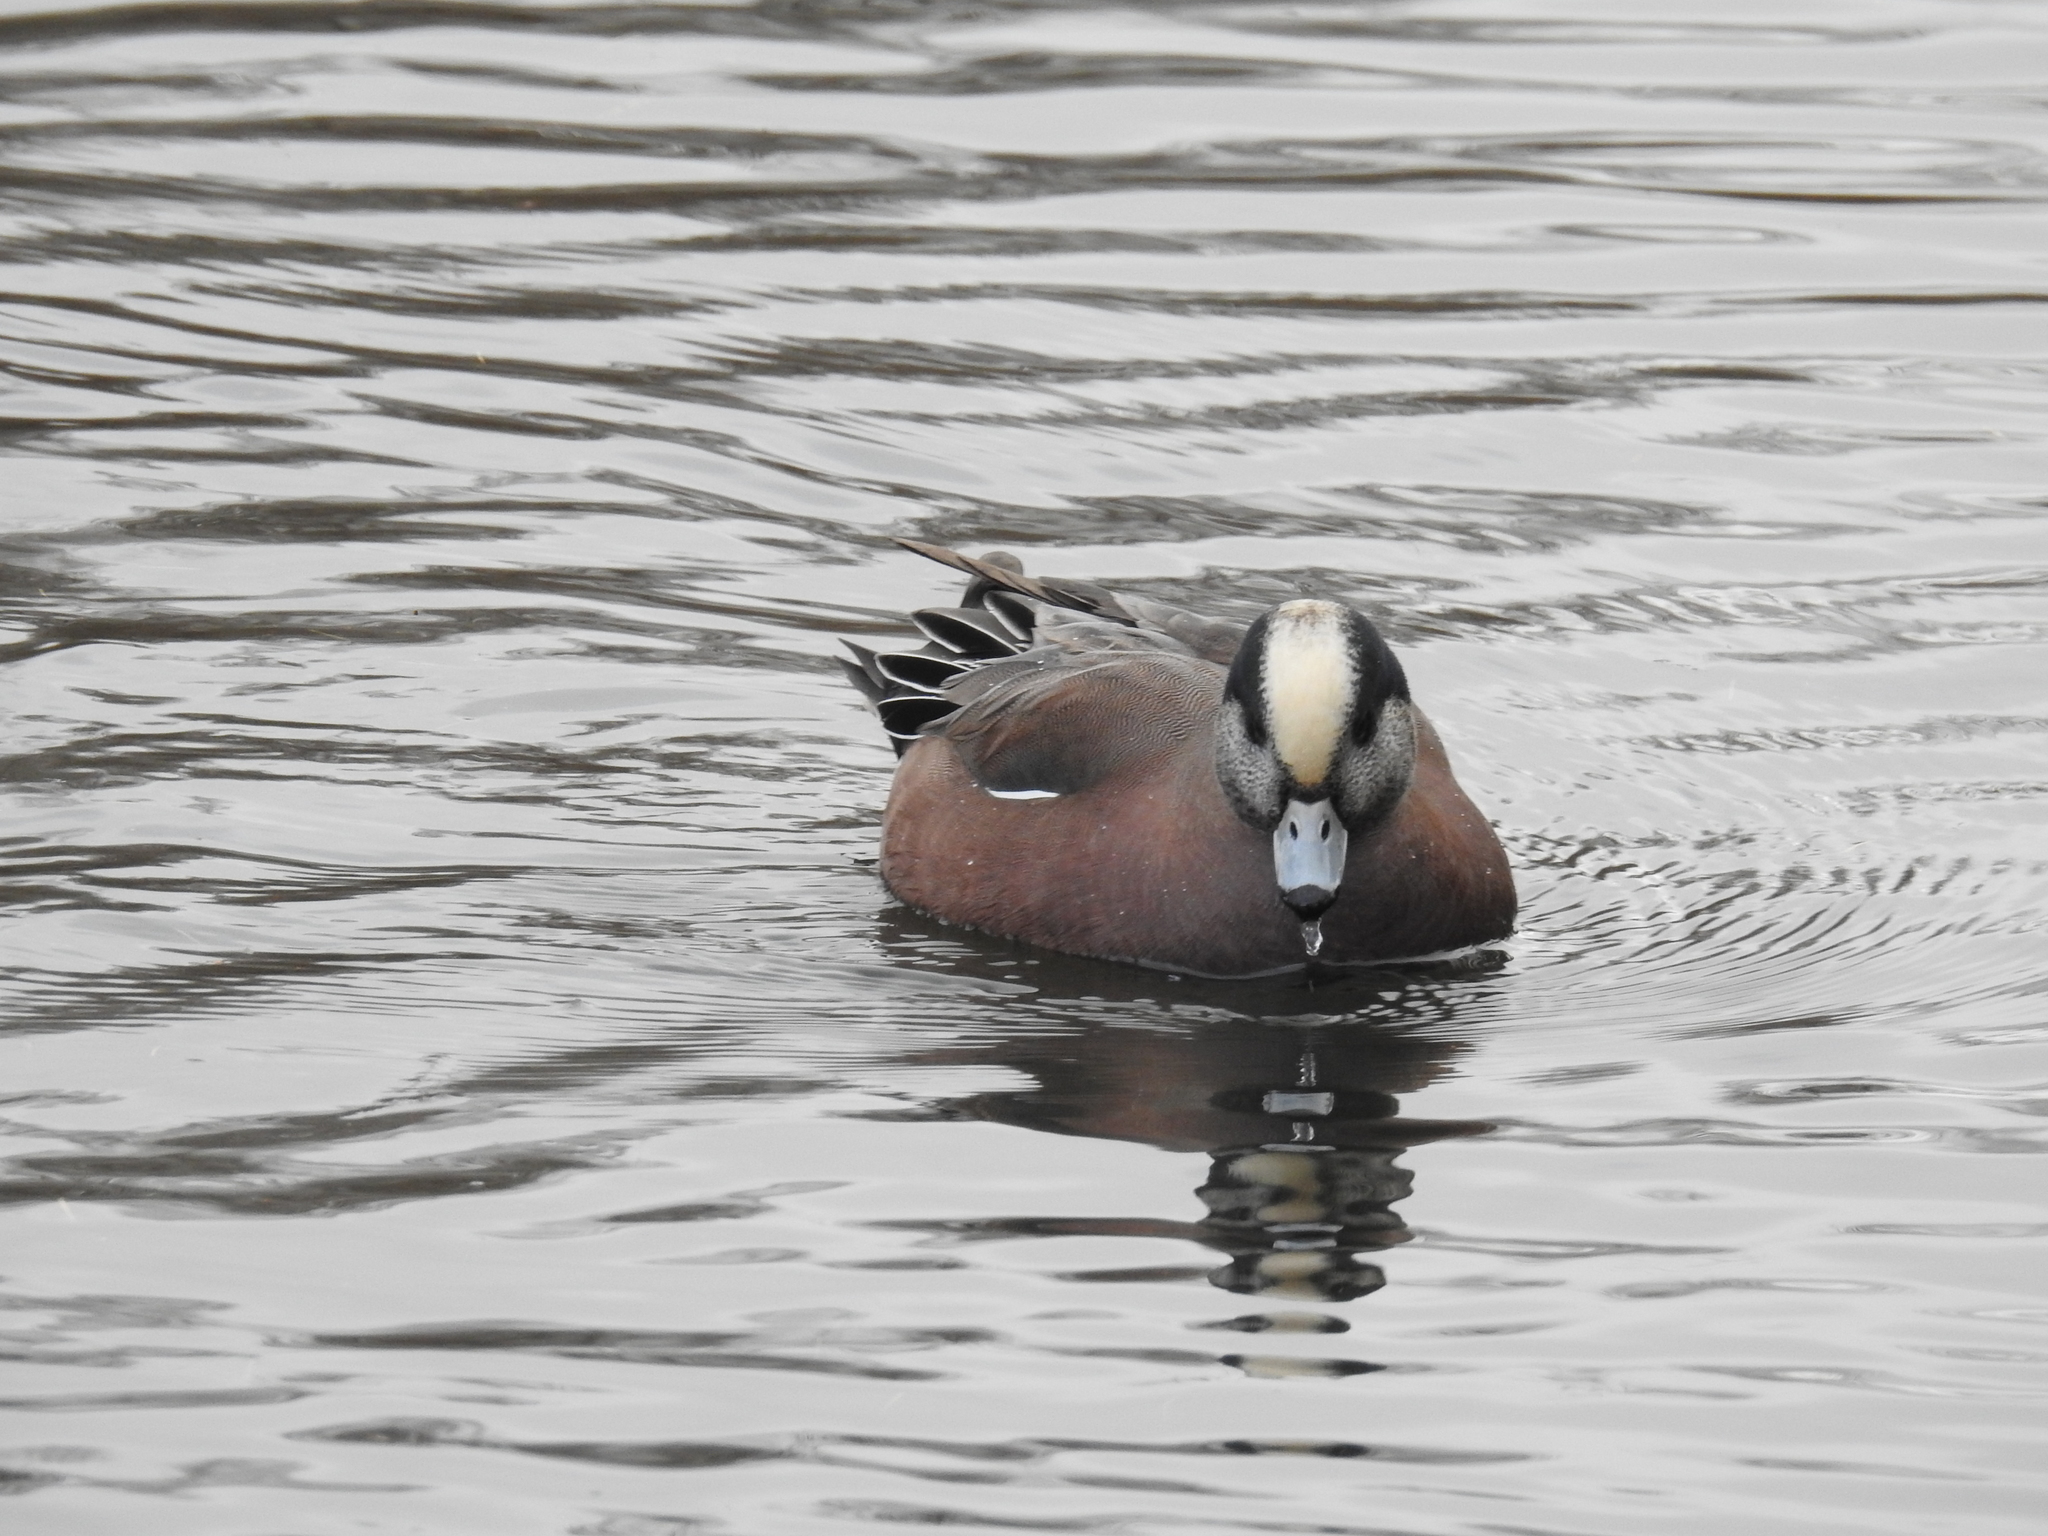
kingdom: Animalia
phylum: Chordata
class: Aves
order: Anseriformes
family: Anatidae
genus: Mareca
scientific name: Mareca americana
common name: American wigeon
